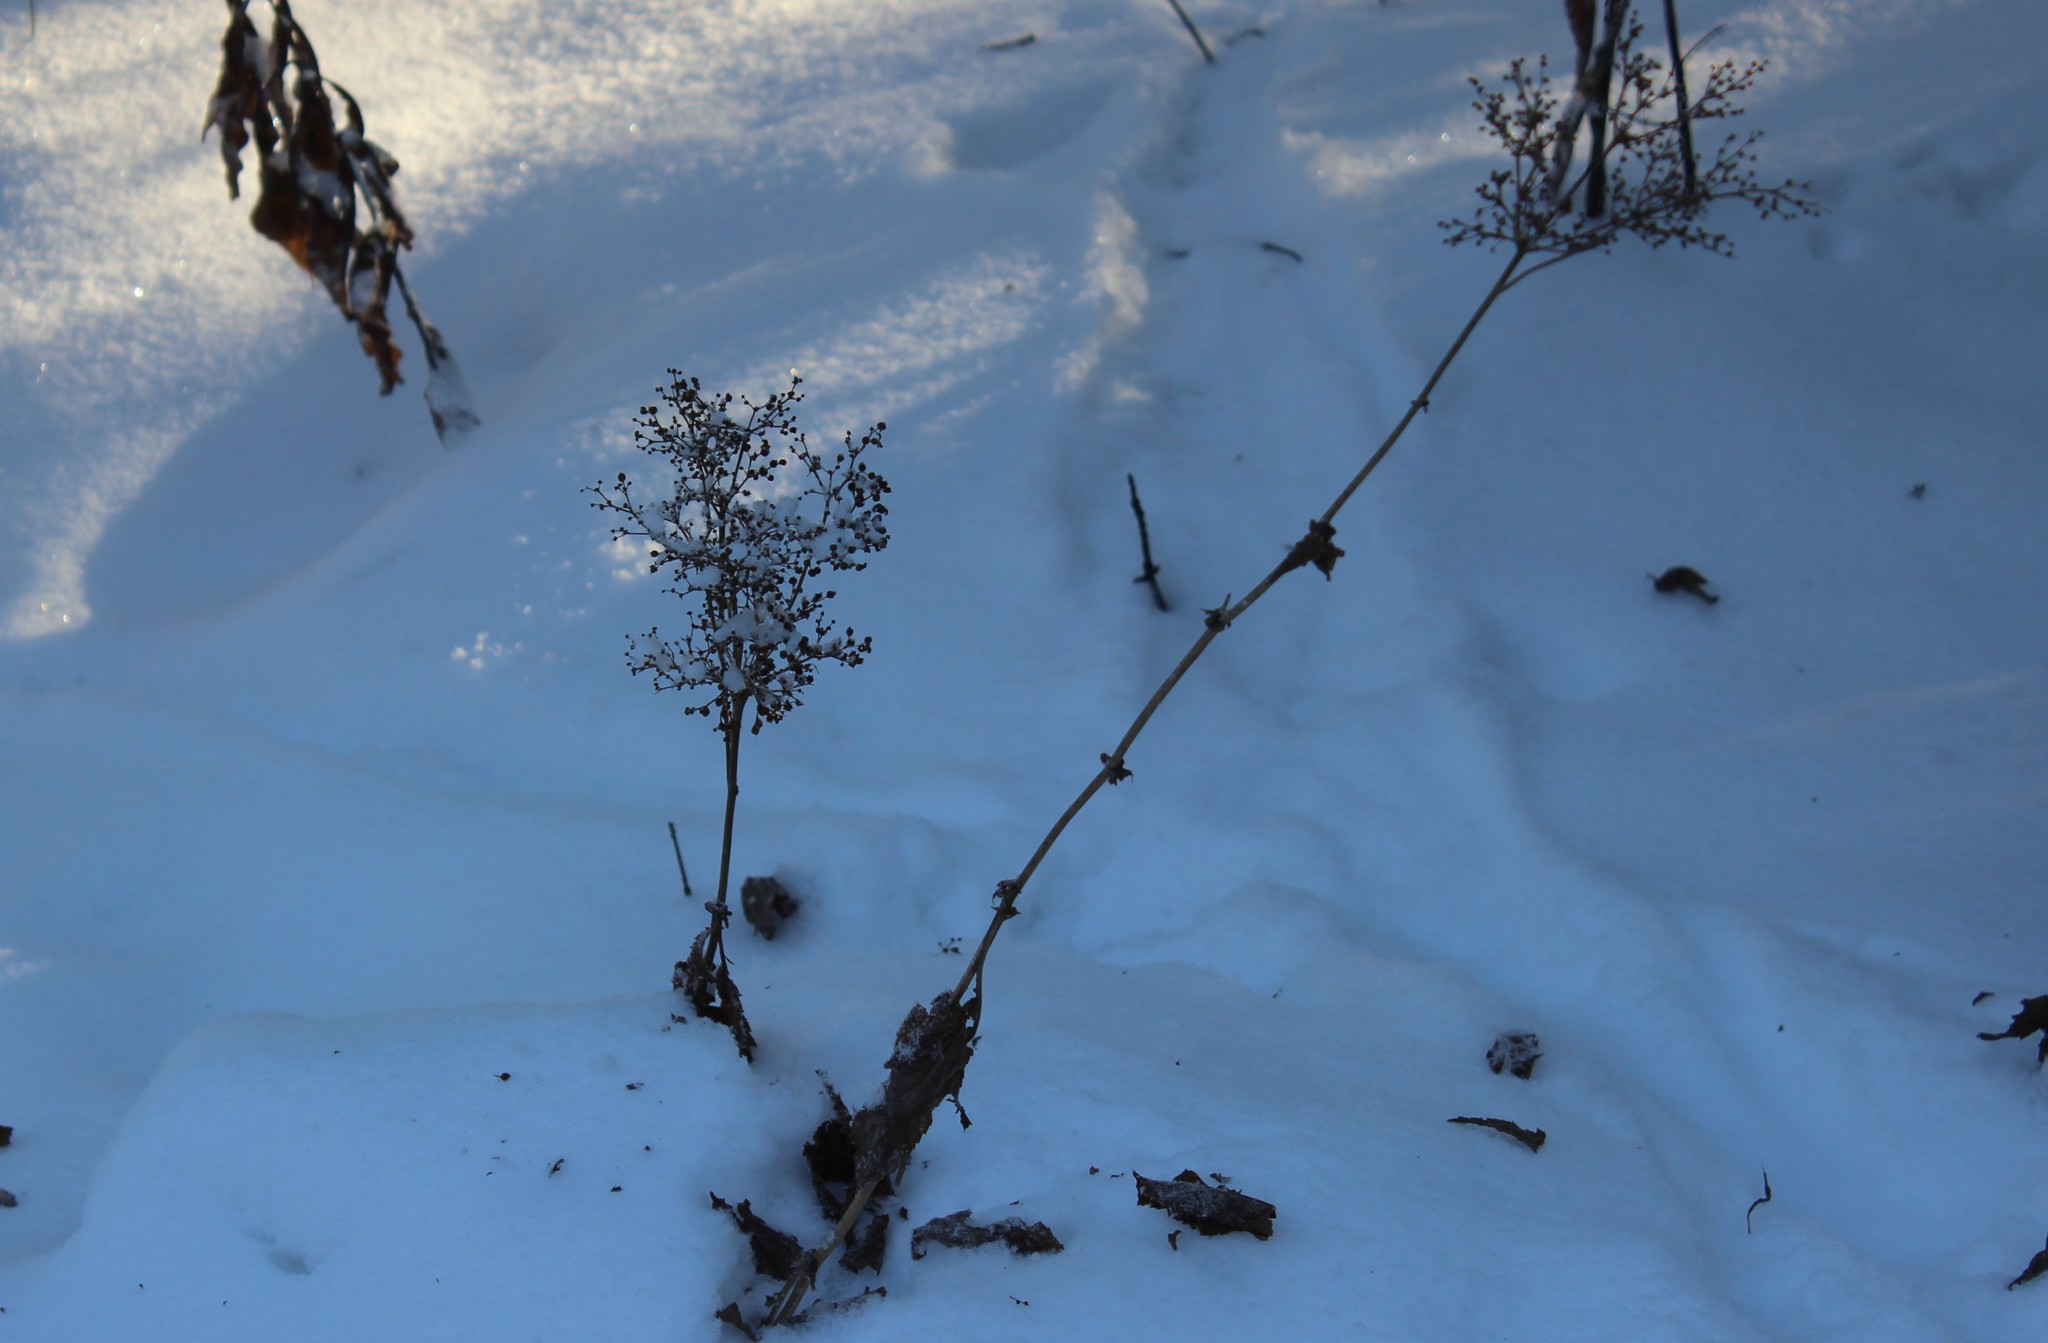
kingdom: Plantae
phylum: Tracheophyta
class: Magnoliopsida
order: Rosales
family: Rosaceae
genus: Filipendula
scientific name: Filipendula ulmaria
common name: Meadowsweet
